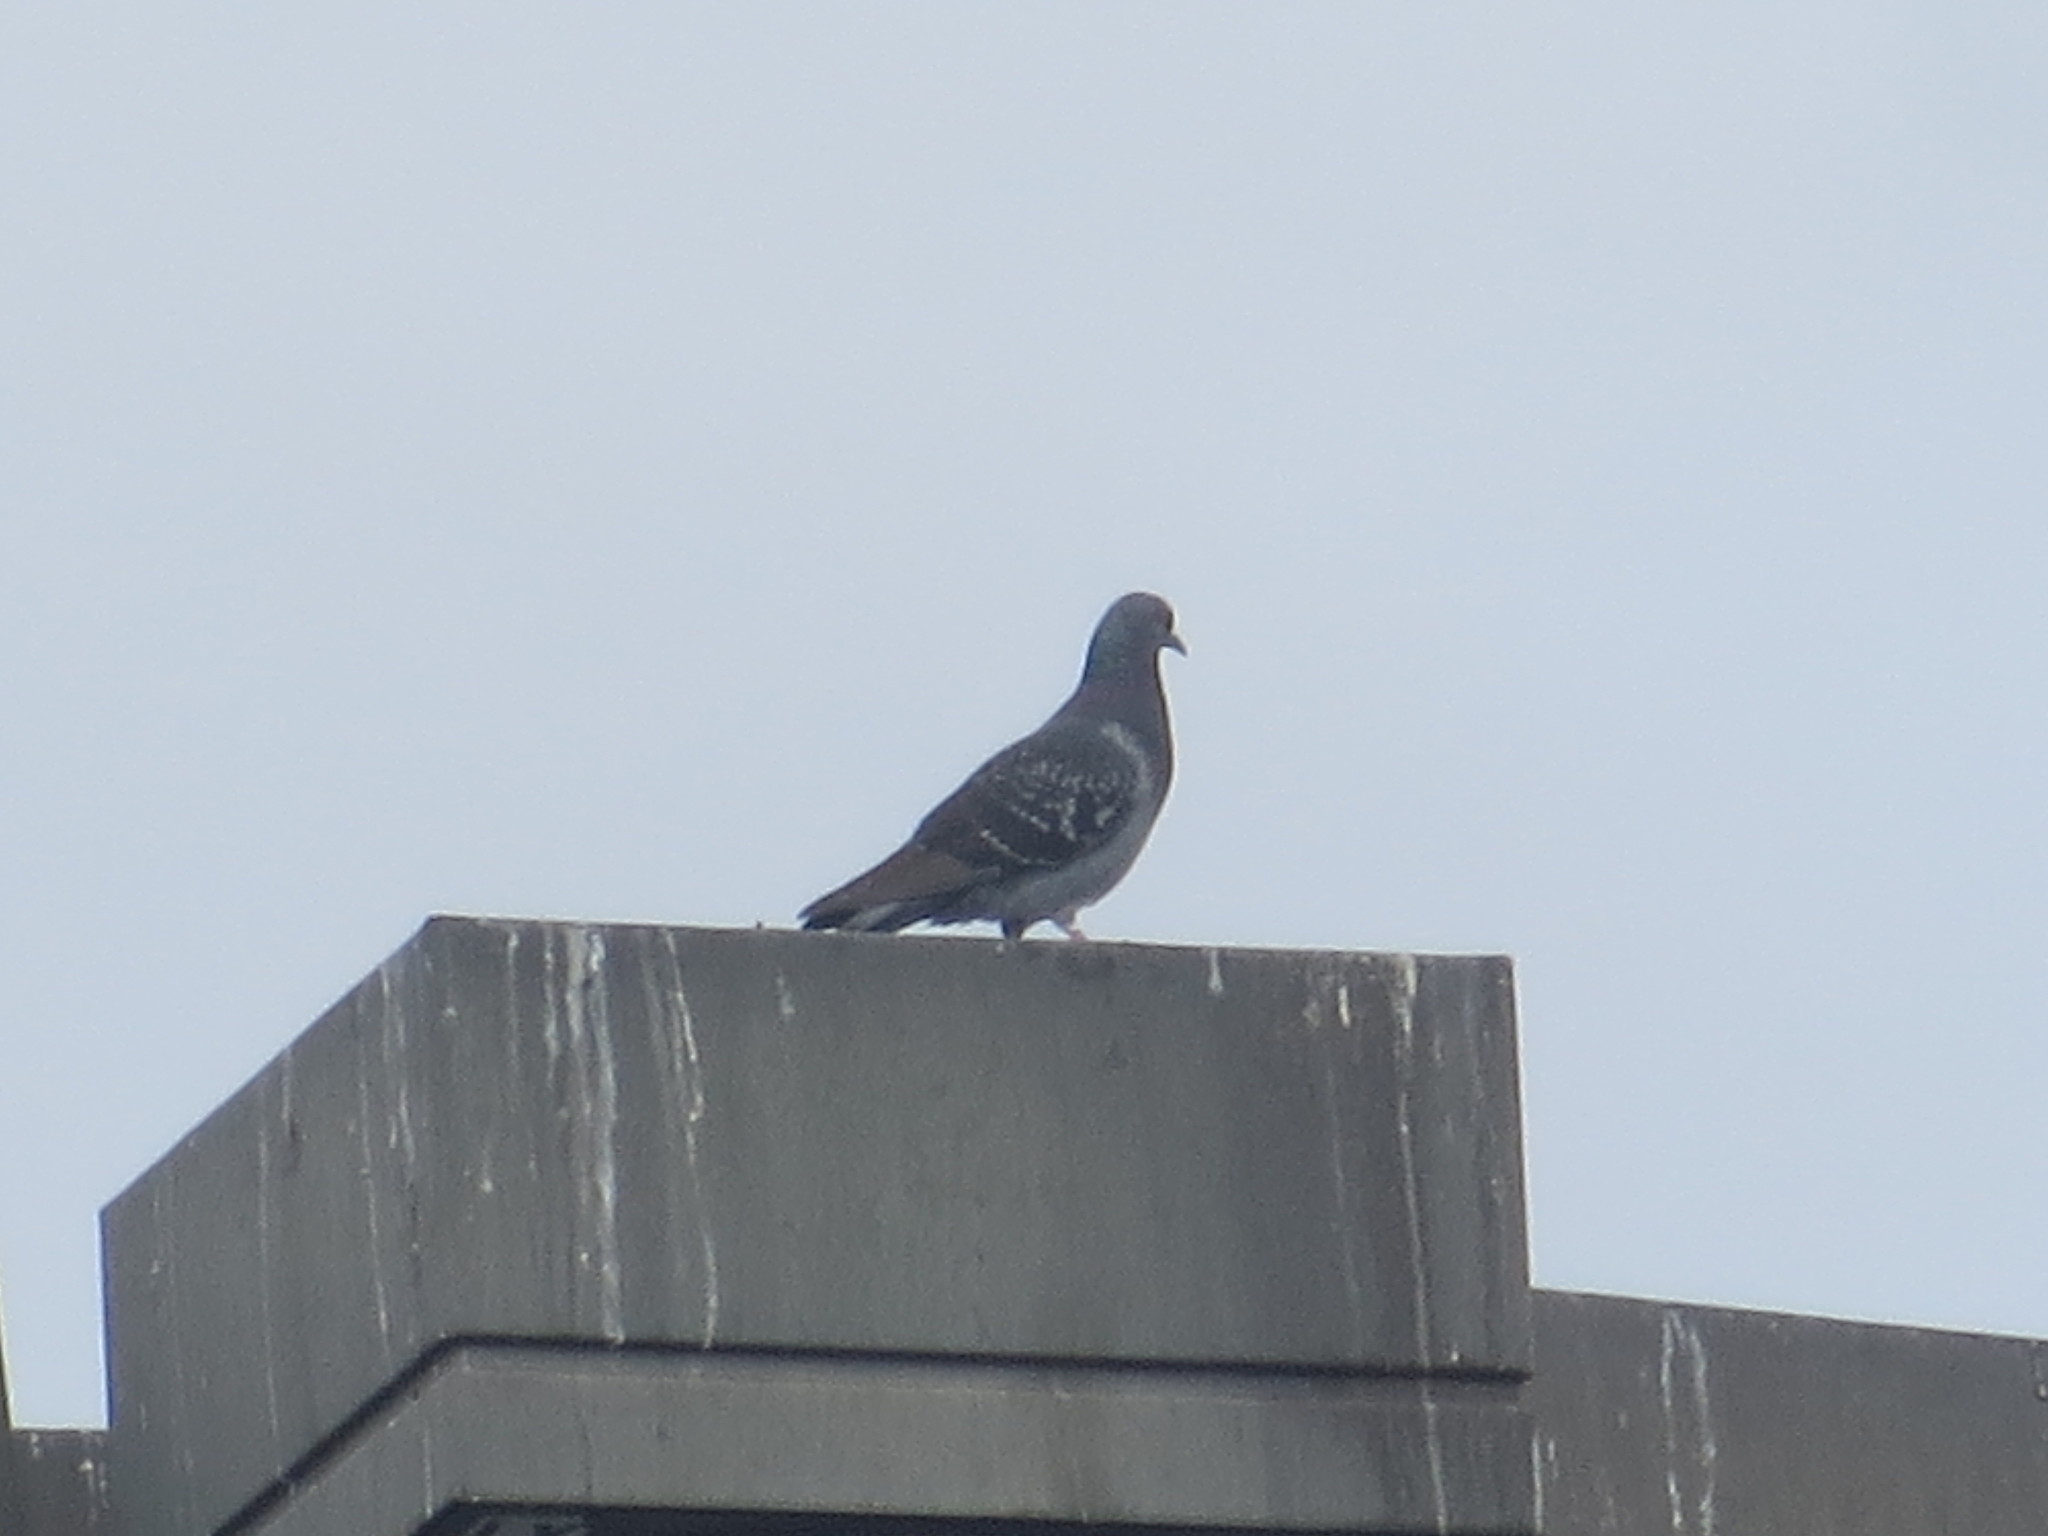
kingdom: Animalia
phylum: Chordata
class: Aves
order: Columbiformes
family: Columbidae
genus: Columba
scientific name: Columba livia
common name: Rock pigeon
